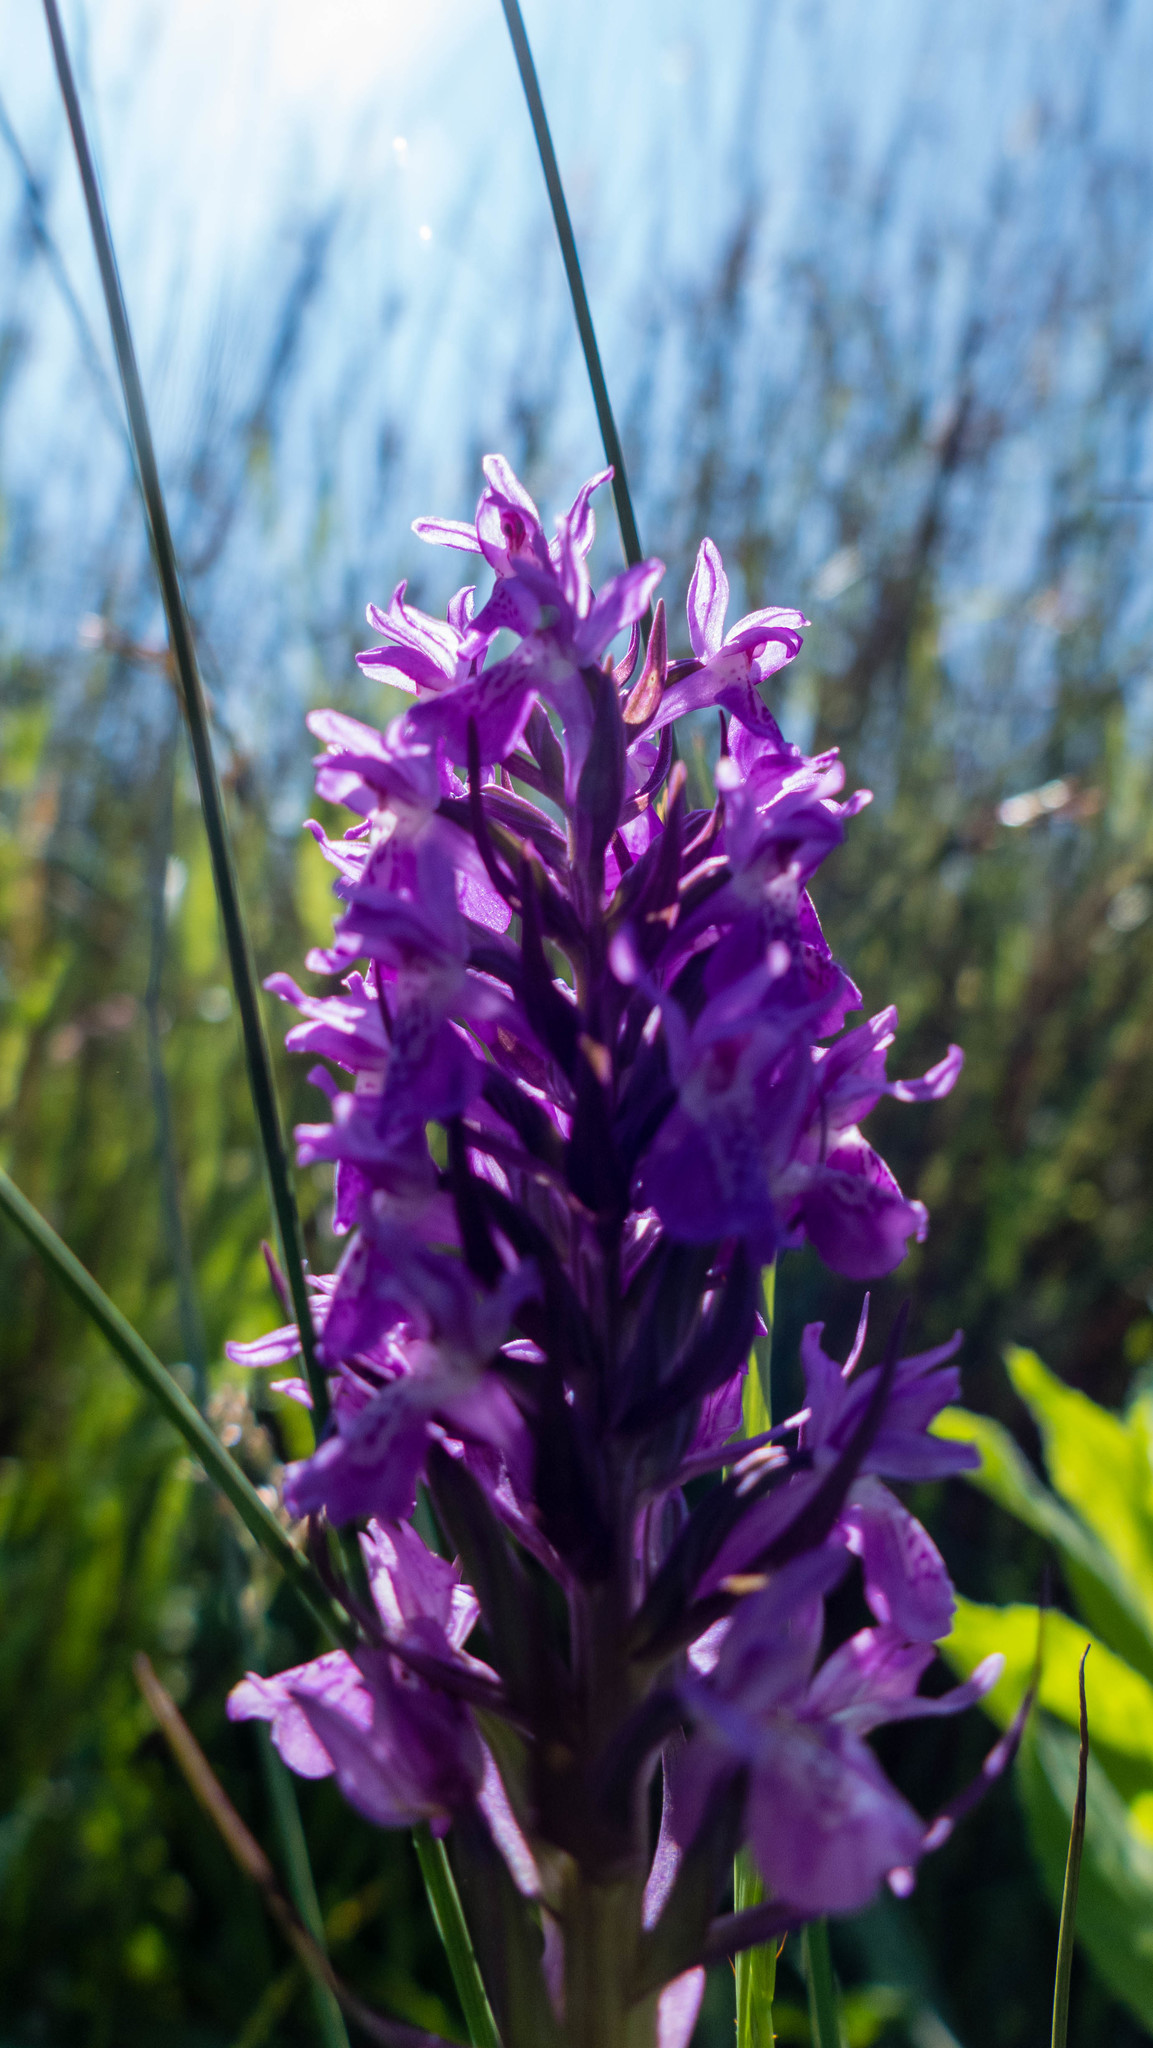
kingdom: Plantae
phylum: Tracheophyta
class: Liliopsida
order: Asparagales
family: Orchidaceae
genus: Dactylorhiza
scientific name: Dactylorhiza majalis
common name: Marsh orchid
